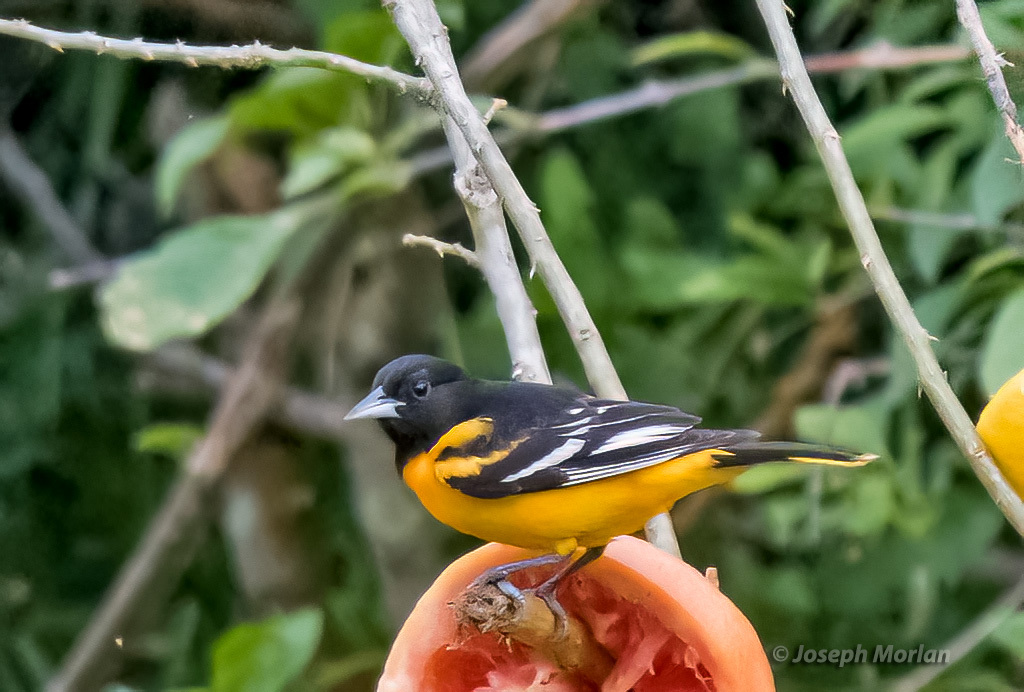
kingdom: Animalia
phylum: Chordata
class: Aves
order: Passeriformes
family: Icteridae
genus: Icterus
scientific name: Icterus galbula
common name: Baltimore oriole
